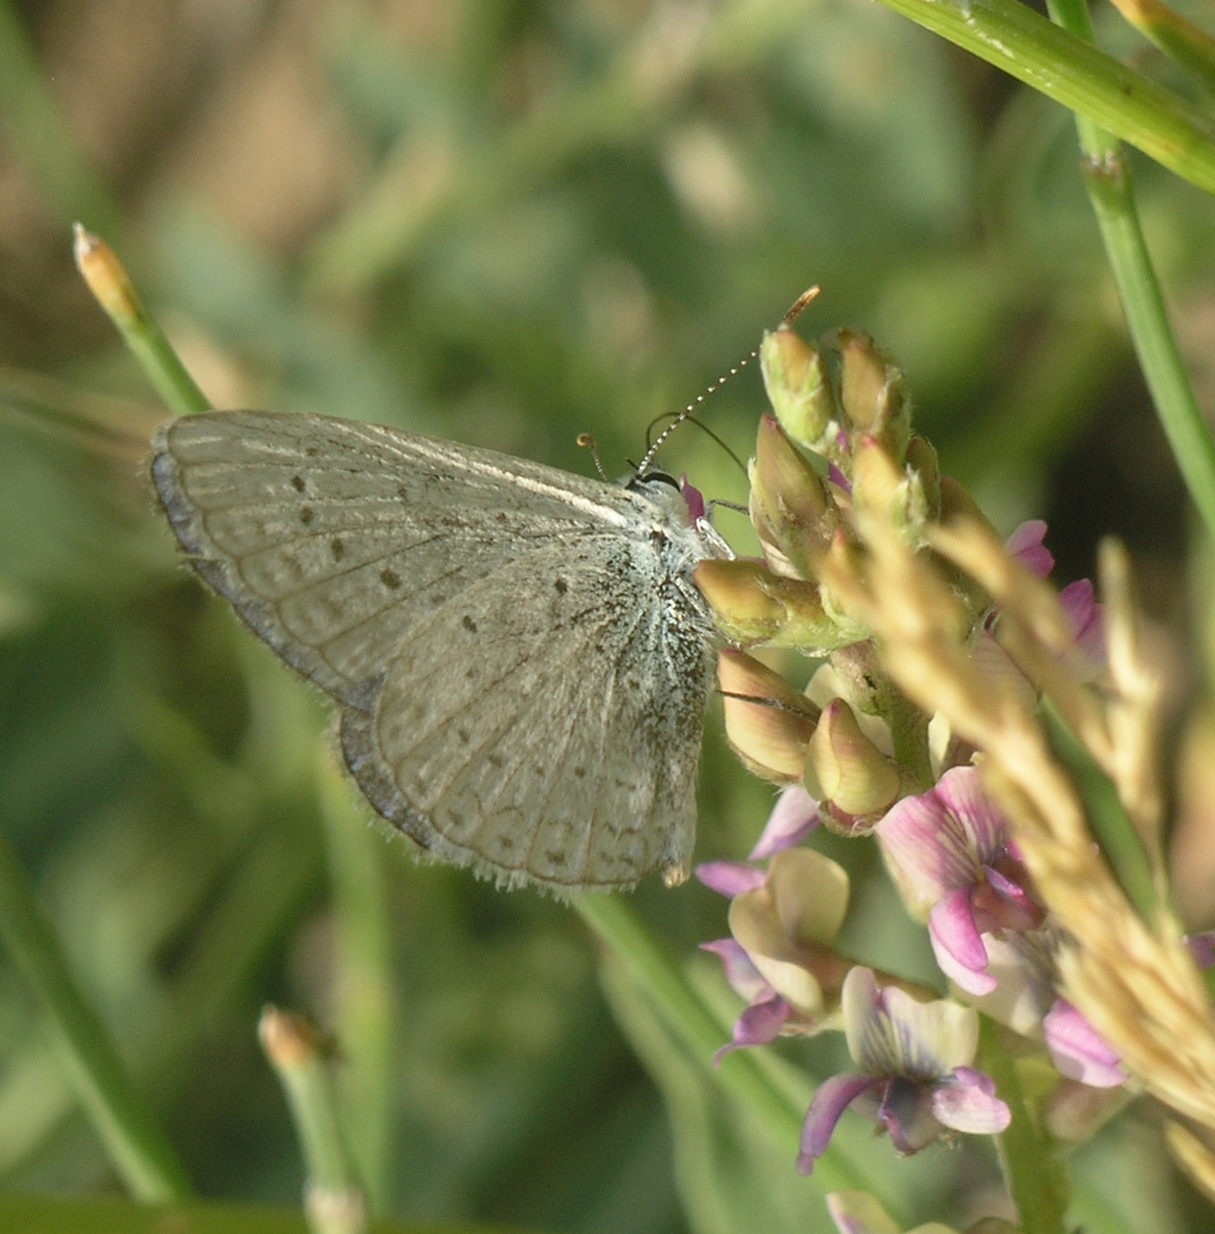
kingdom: Animalia
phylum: Arthropoda
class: Insecta
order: Lepidoptera
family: Lycaenidae
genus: Cupido
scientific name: Cupido prosecusa
